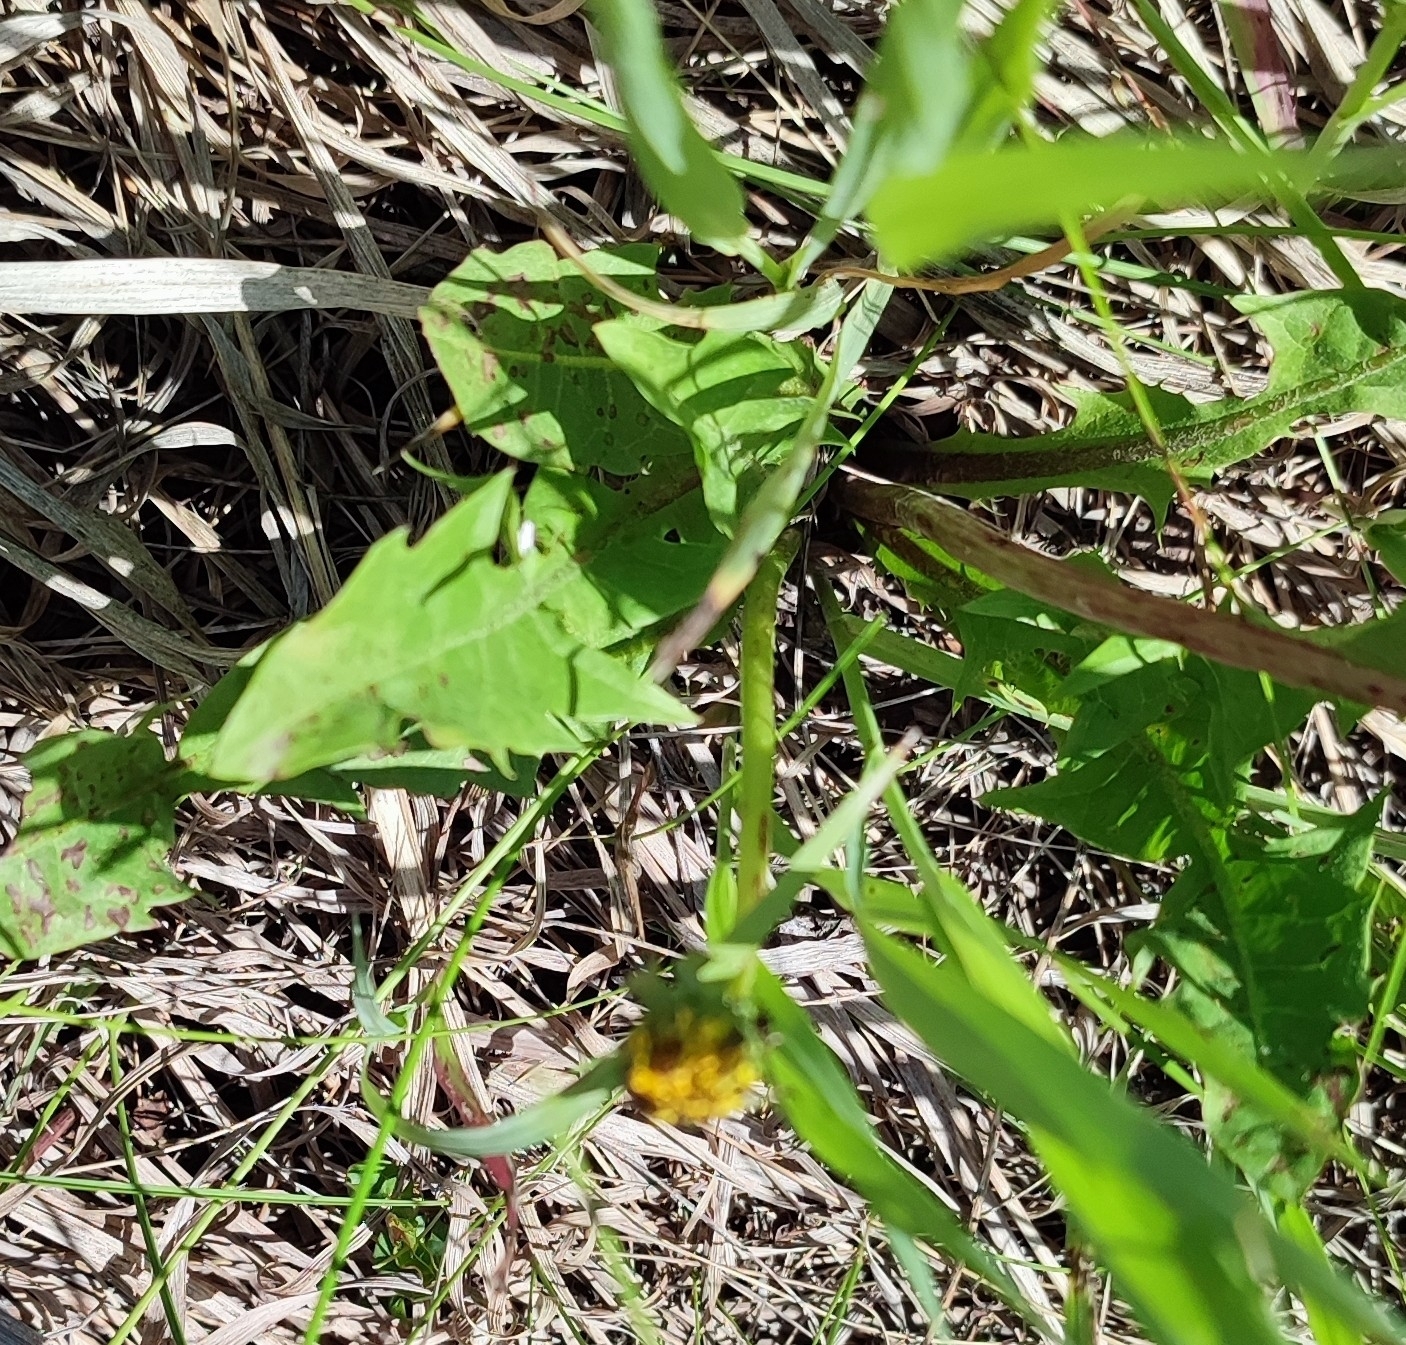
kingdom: Plantae
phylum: Tracheophyta
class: Magnoliopsida
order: Asterales
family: Asteraceae
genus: Taraxacum
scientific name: Taraxacum officinale
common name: Common dandelion
